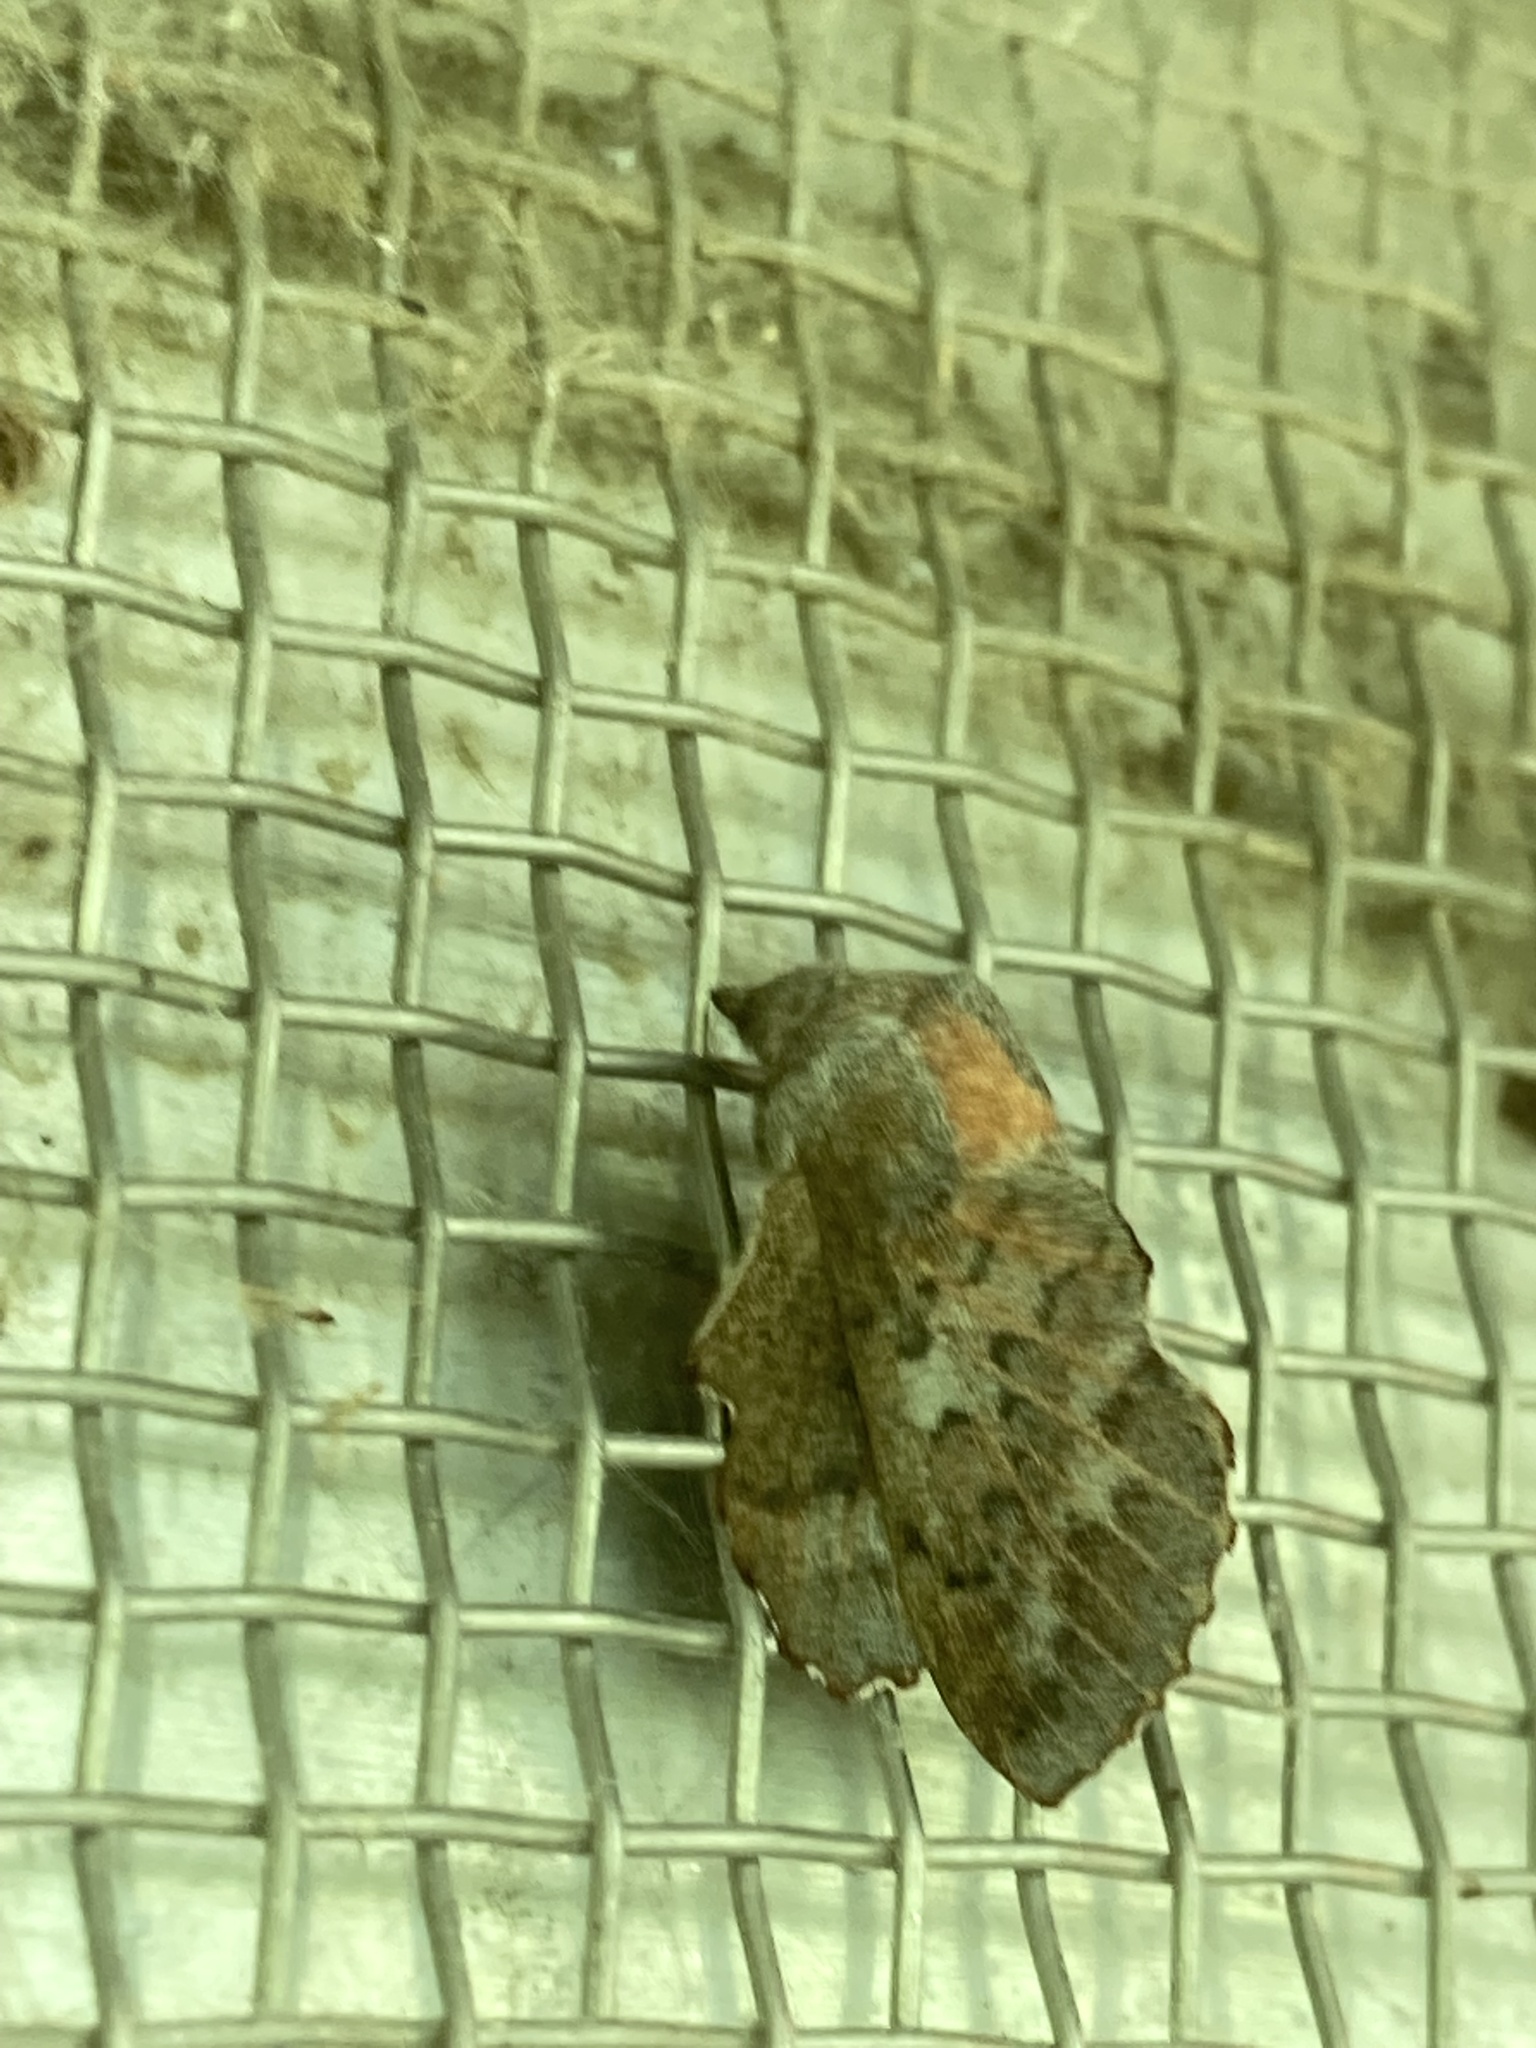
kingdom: Animalia
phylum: Arthropoda
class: Insecta
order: Lepidoptera
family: Lasiocampidae
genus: Phyllodesma
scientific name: Phyllodesma americana
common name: American lappet moth
